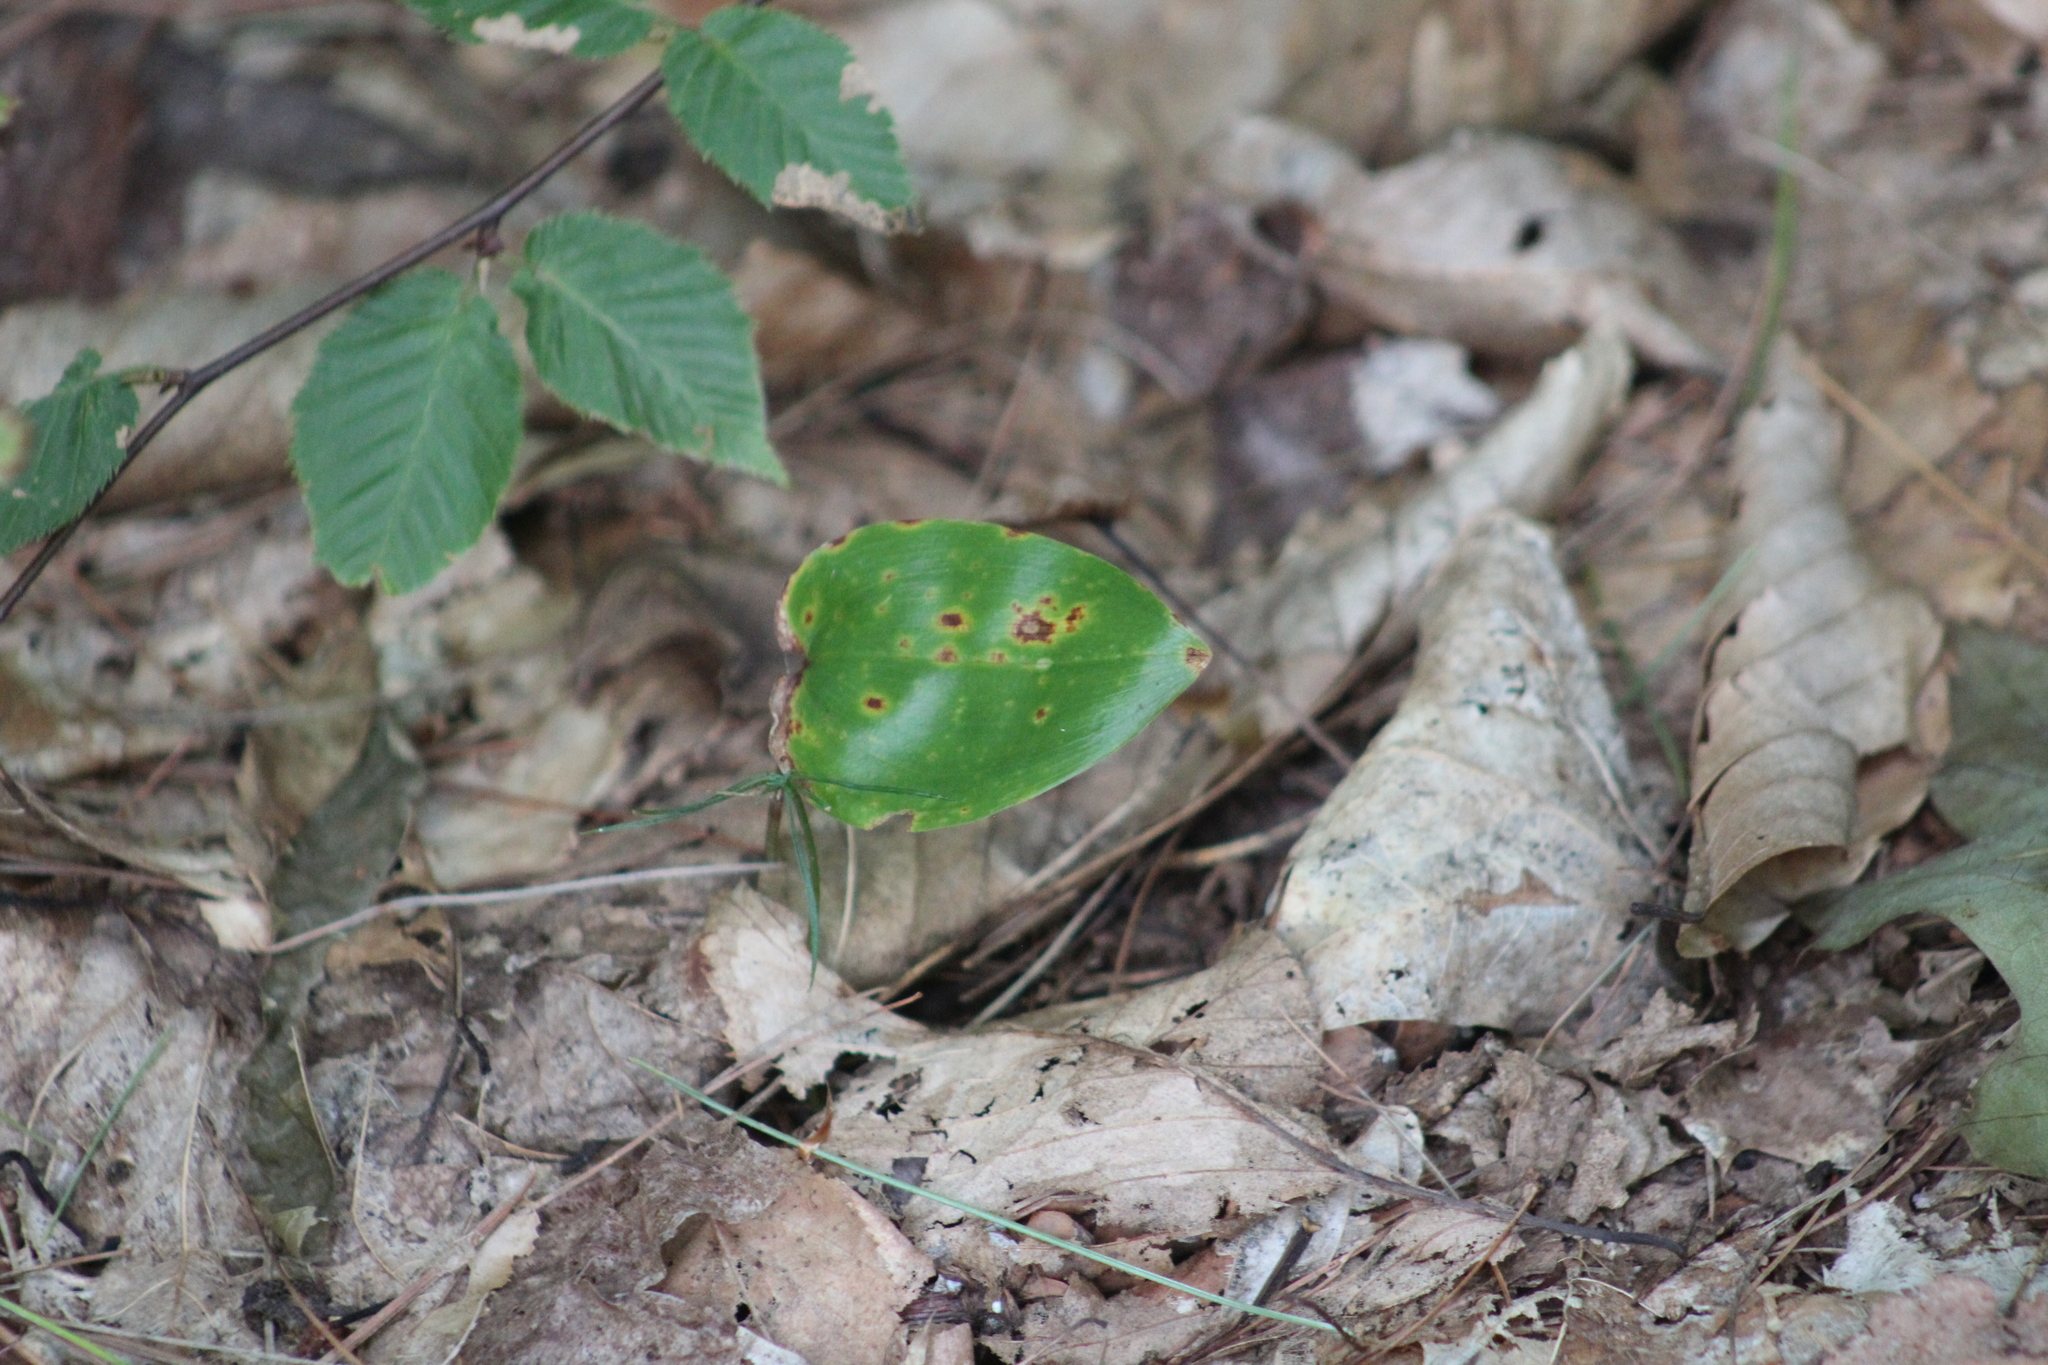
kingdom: Plantae
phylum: Tracheophyta
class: Liliopsida
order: Asparagales
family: Asparagaceae
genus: Maianthemum
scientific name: Maianthemum canadense
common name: False lily-of-the-valley
